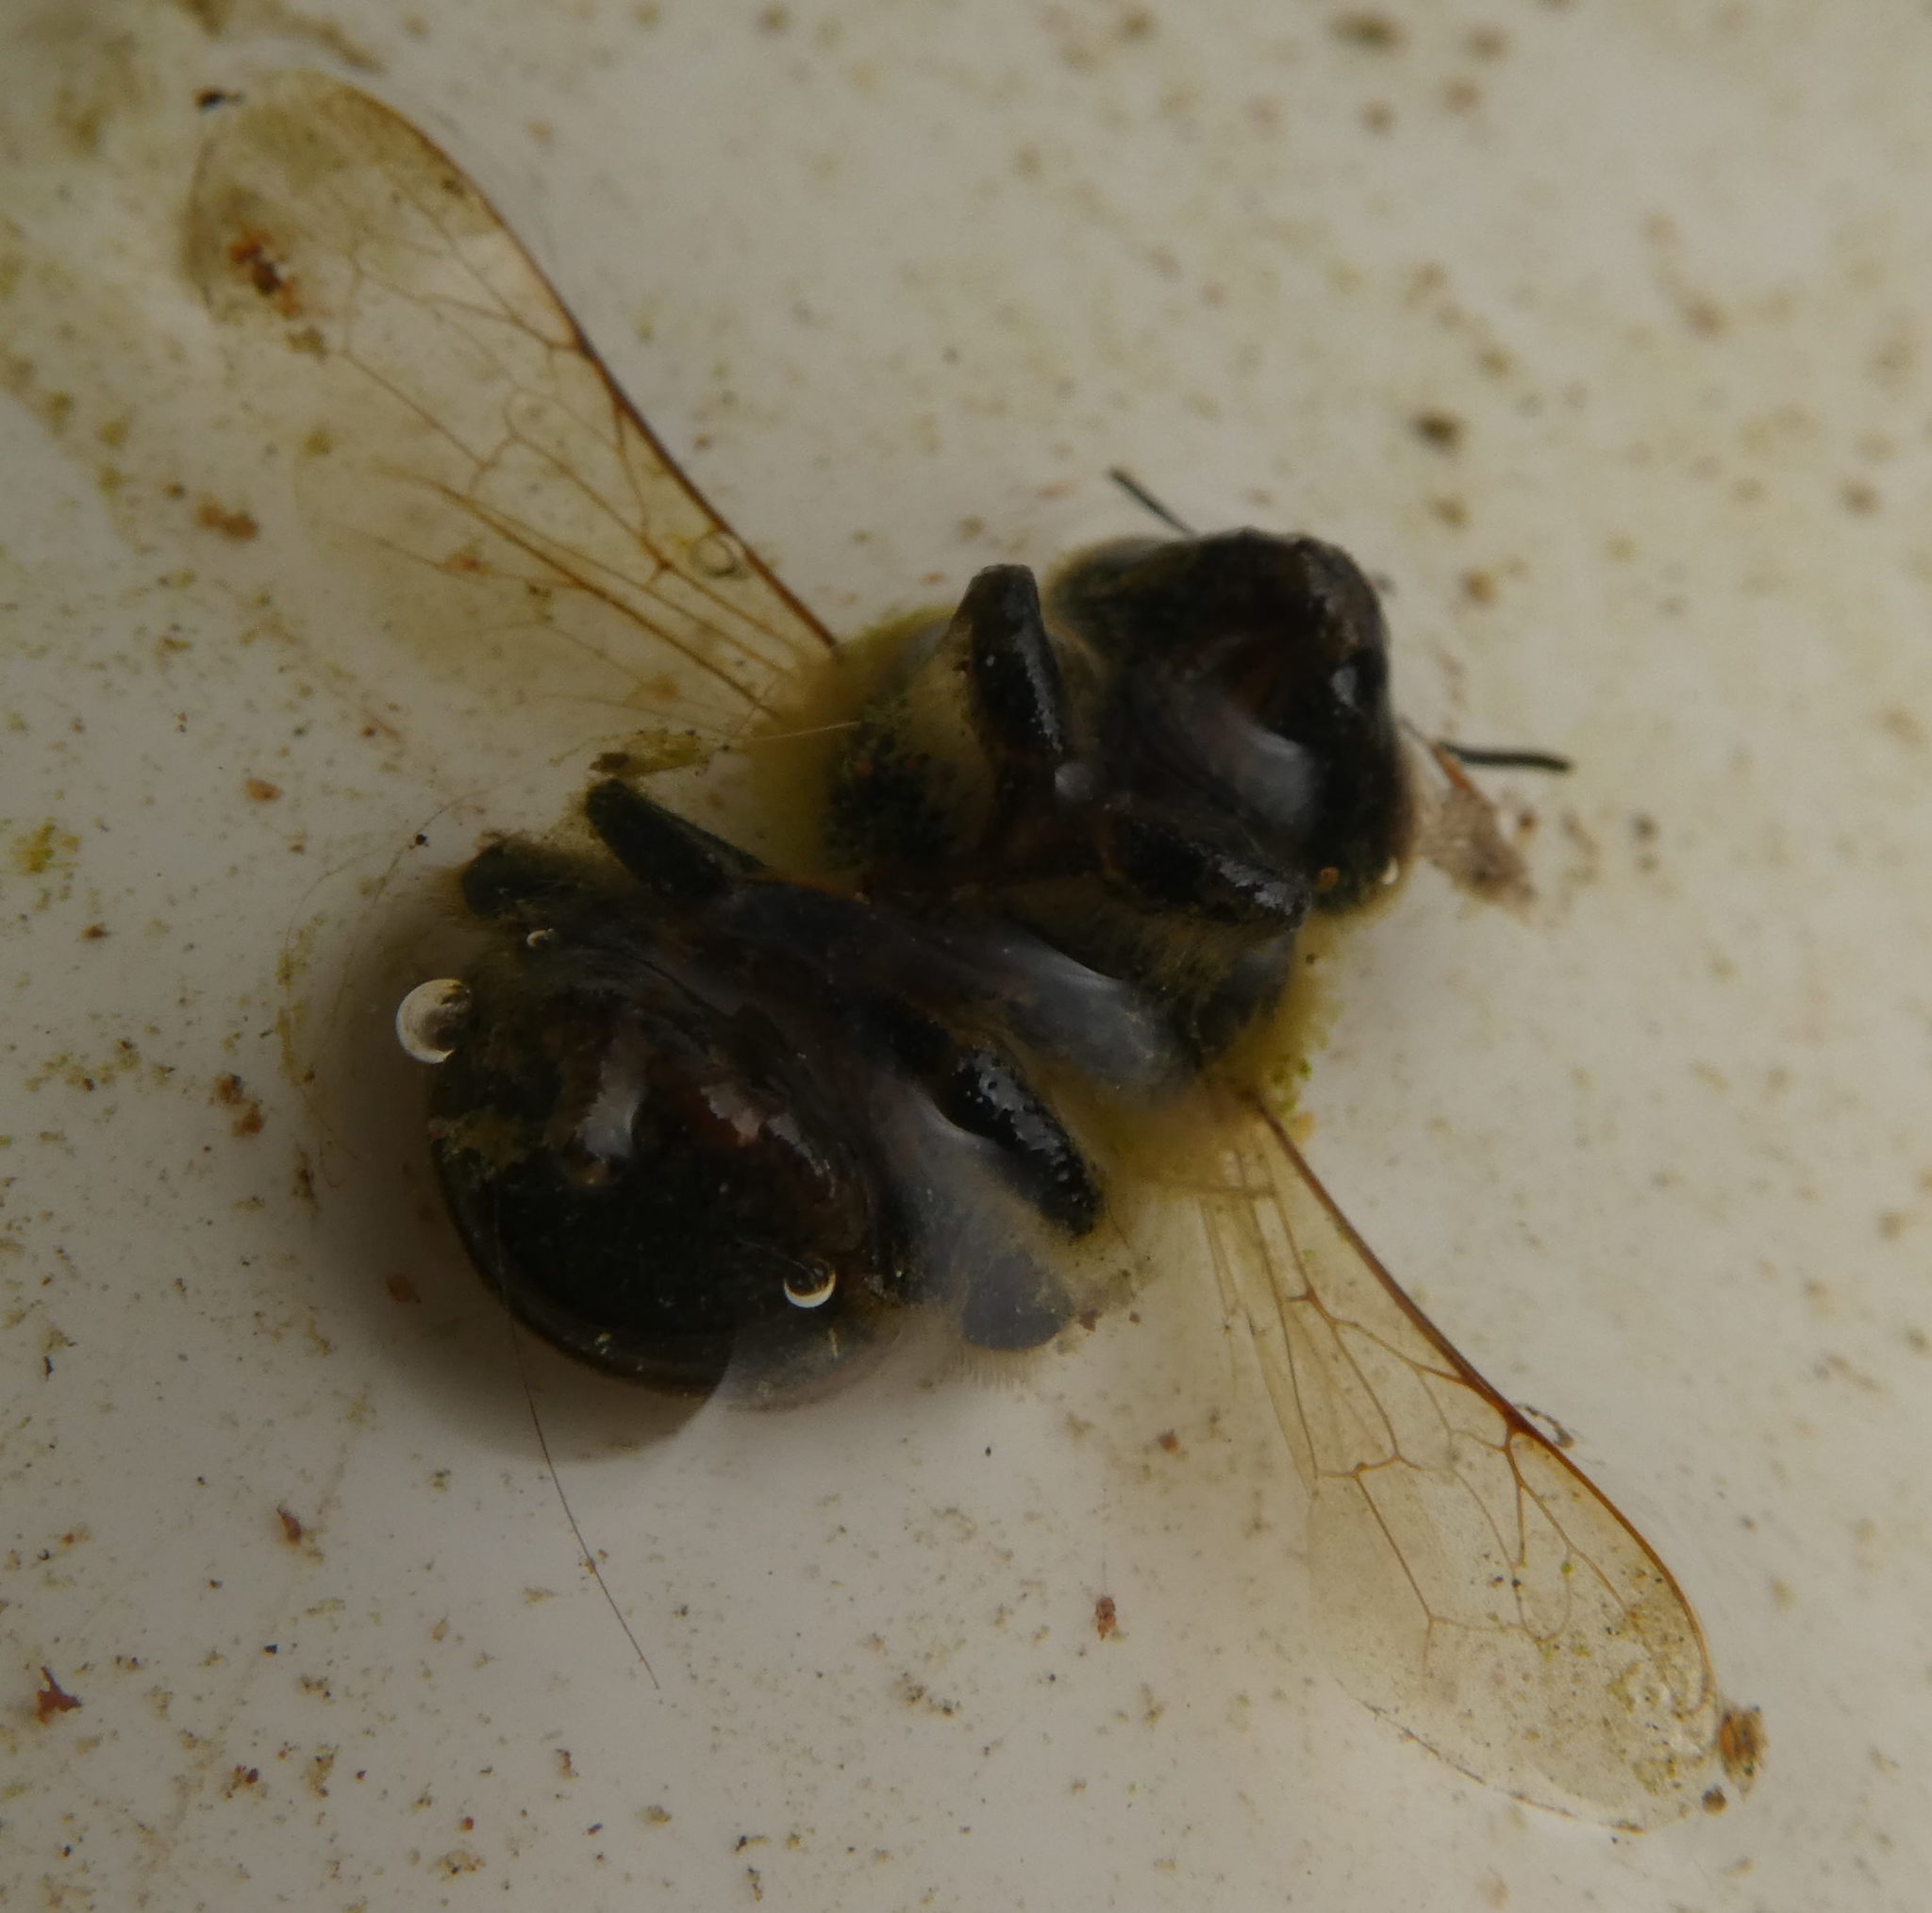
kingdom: Animalia
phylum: Arthropoda
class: Insecta
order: Hymenoptera
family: Apidae
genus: Apis
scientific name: Apis mellifera
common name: Honey bee
